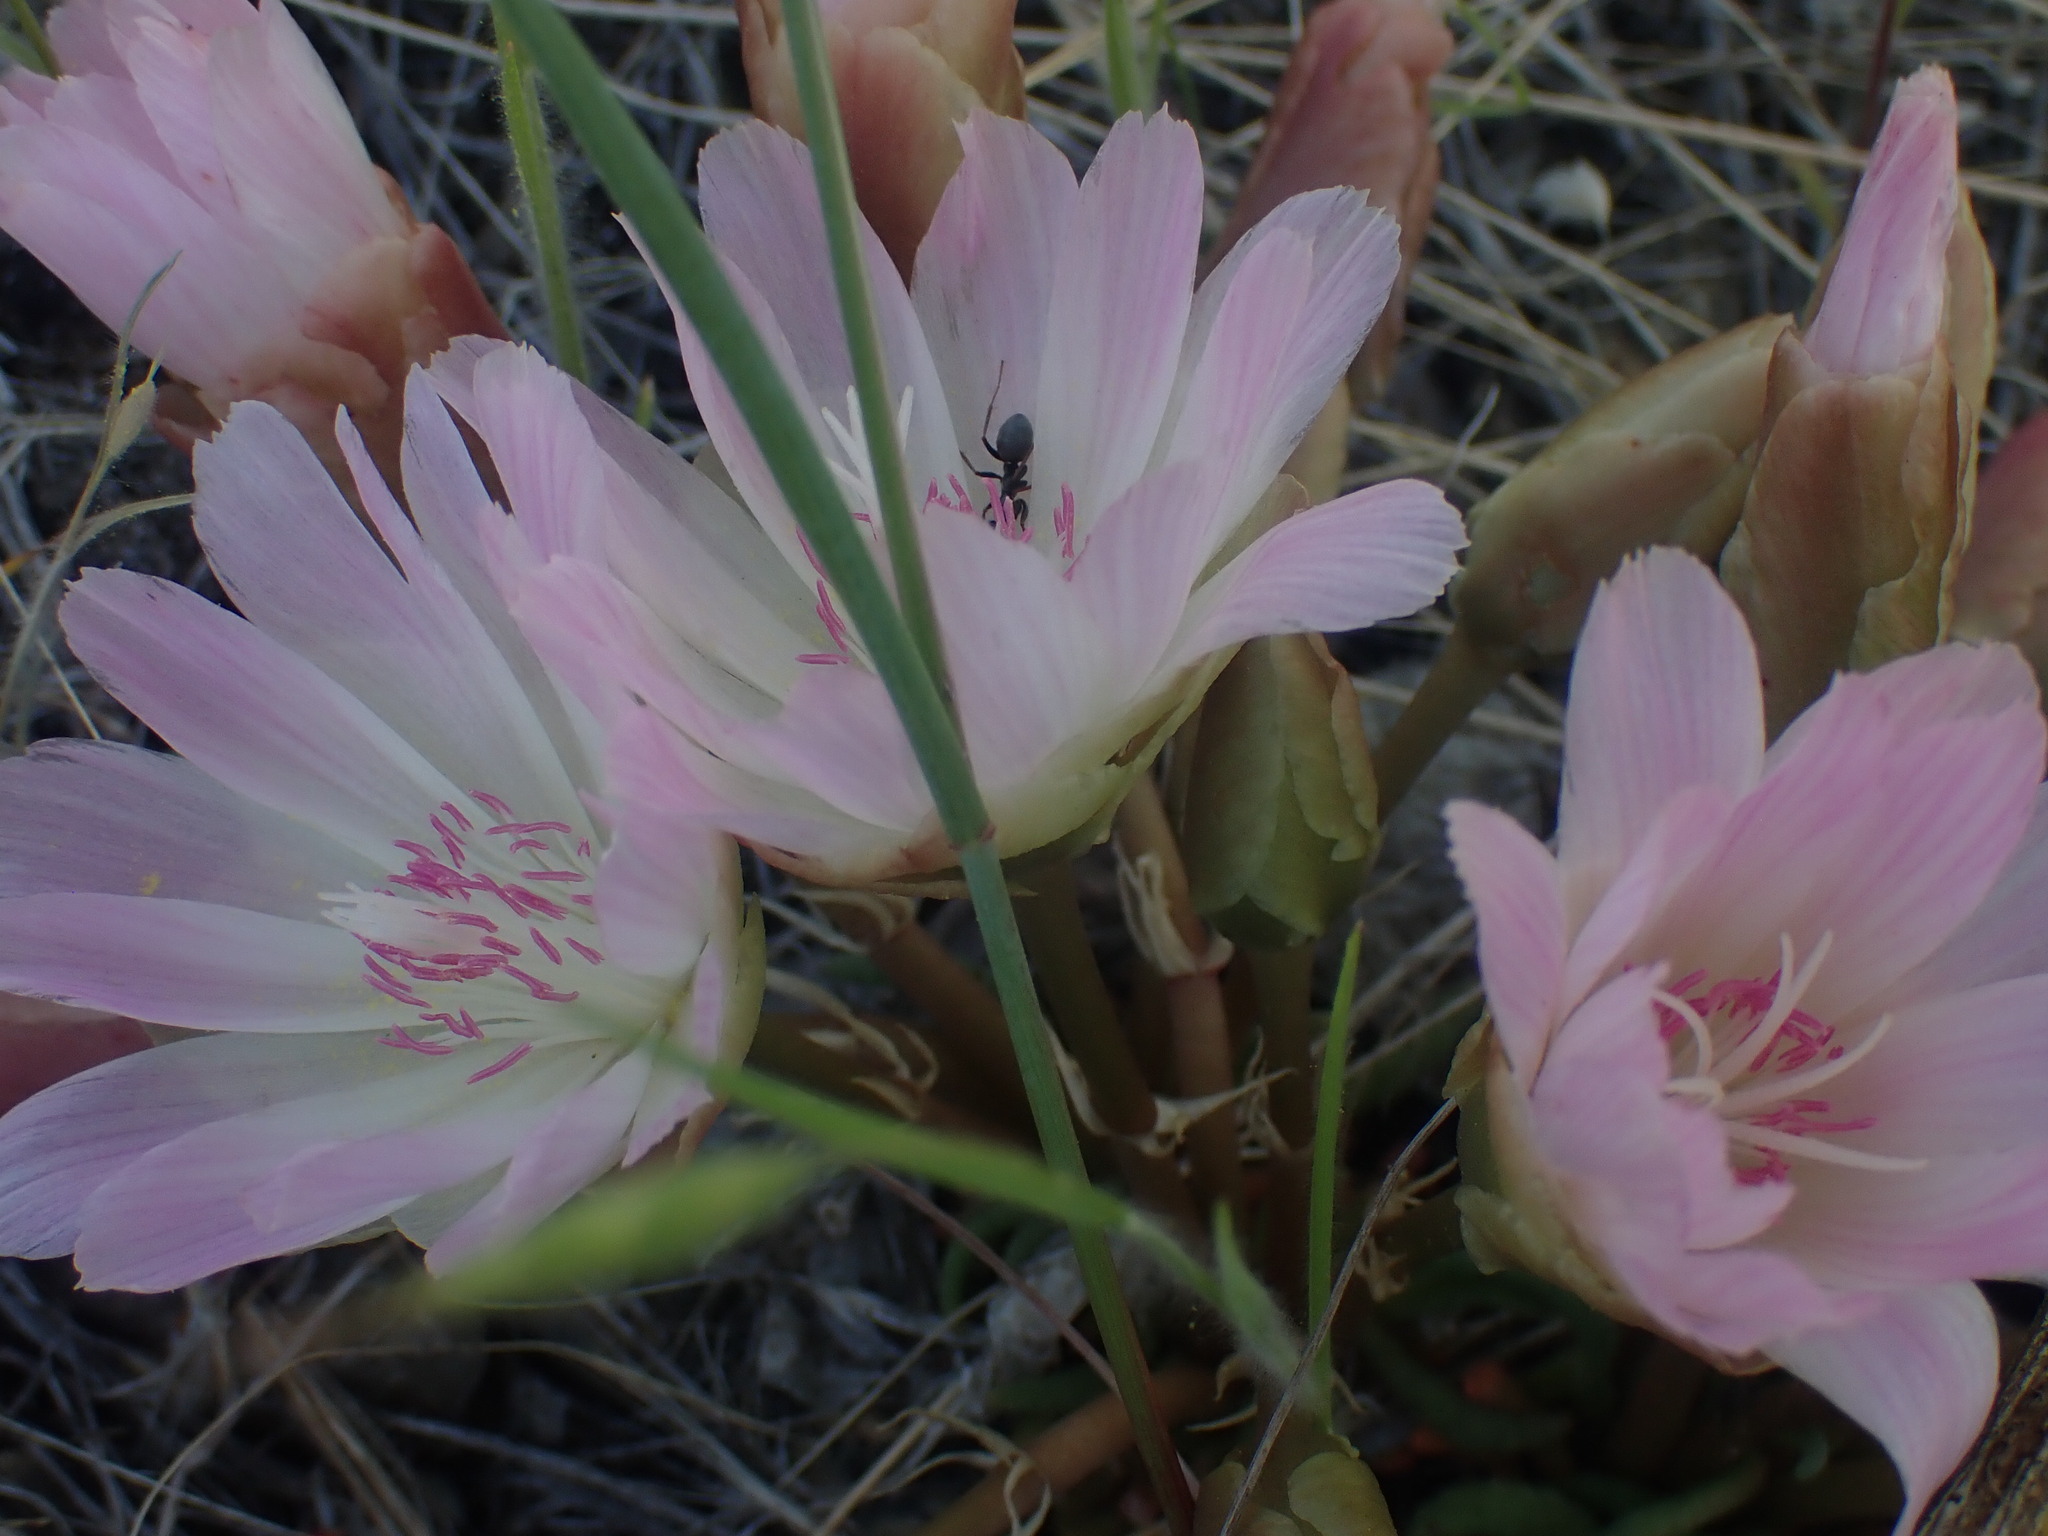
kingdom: Plantae
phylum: Tracheophyta
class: Magnoliopsida
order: Caryophyllales
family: Montiaceae
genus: Lewisia
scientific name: Lewisia rediviva
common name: Bitter-root
